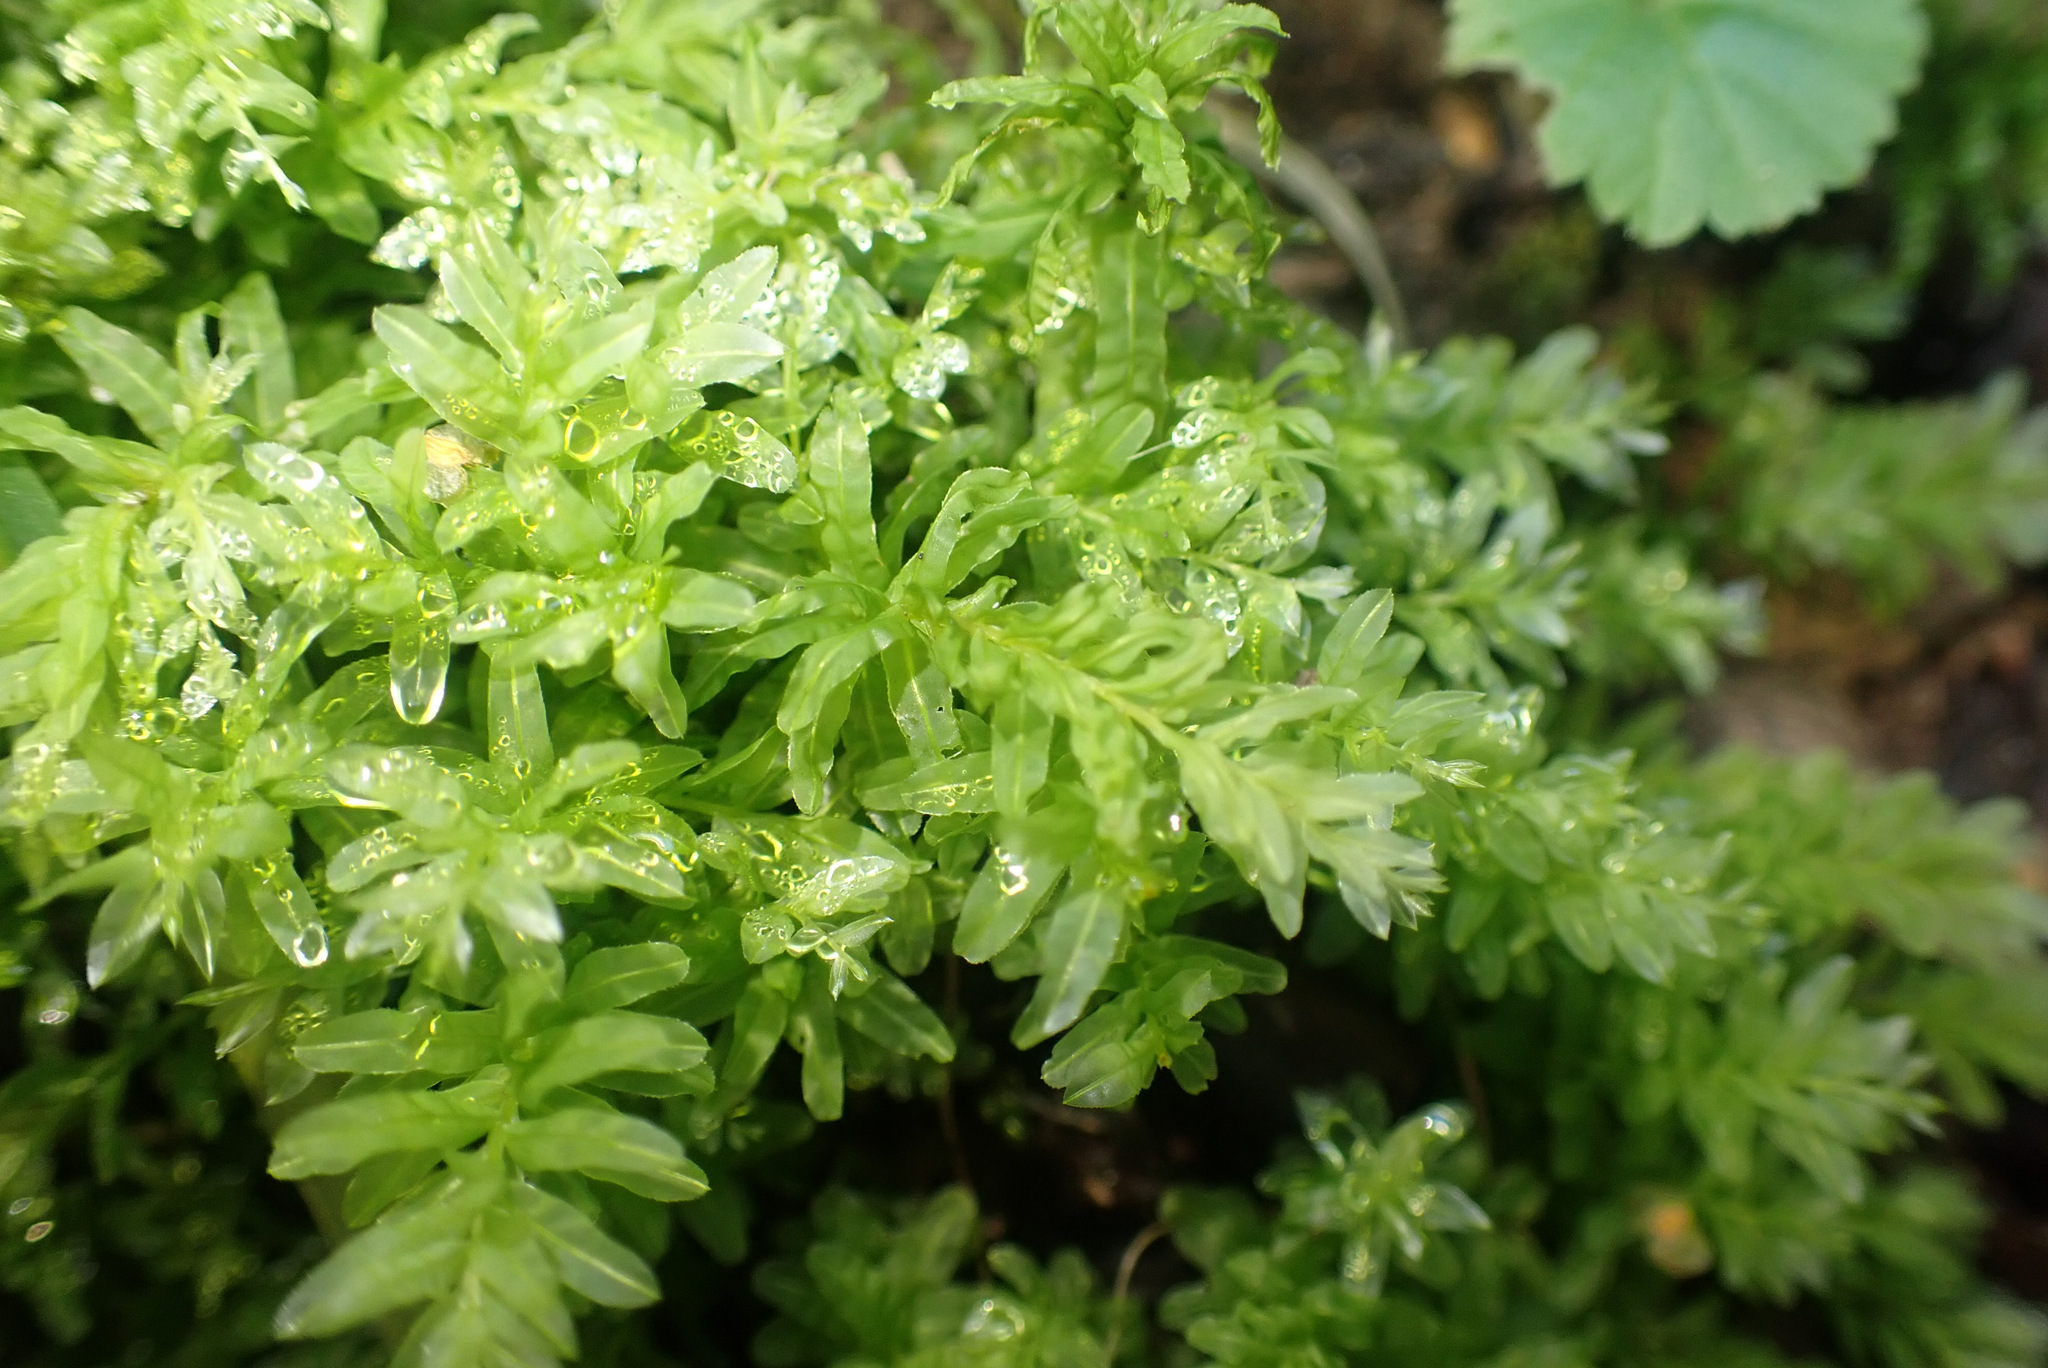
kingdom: Plantae
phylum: Bryophyta
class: Bryopsida
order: Bryales
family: Mniaceae
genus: Plagiomnium
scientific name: Plagiomnium undulatum
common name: Hart's-tongue thyme-moss
